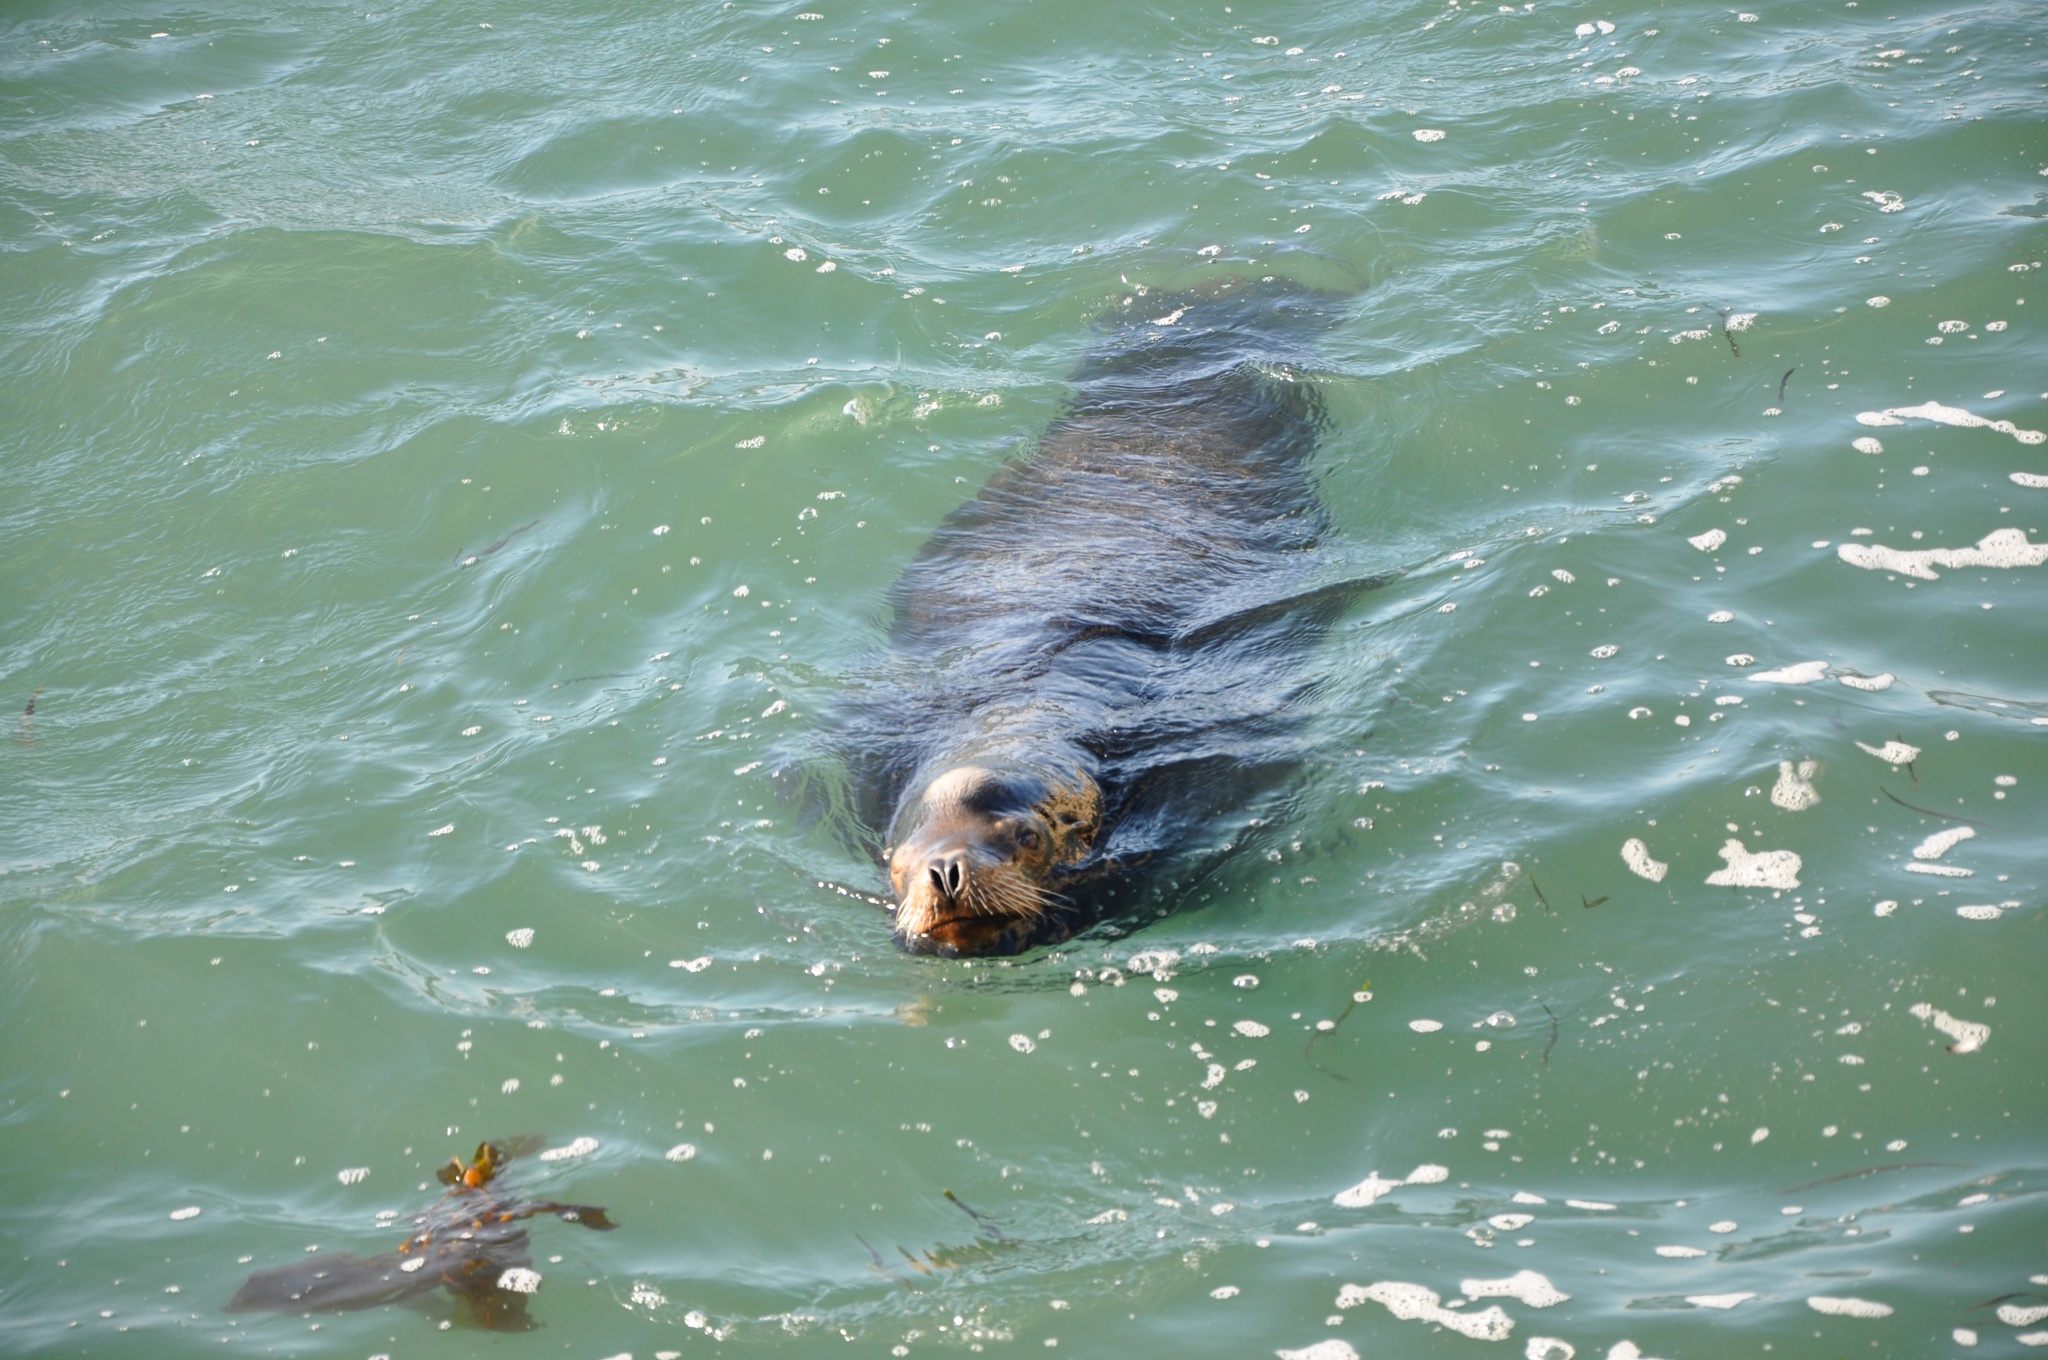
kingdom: Animalia
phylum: Chordata
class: Mammalia
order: Carnivora
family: Otariidae
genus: Zalophus
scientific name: Zalophus californianus
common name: California sea lion
